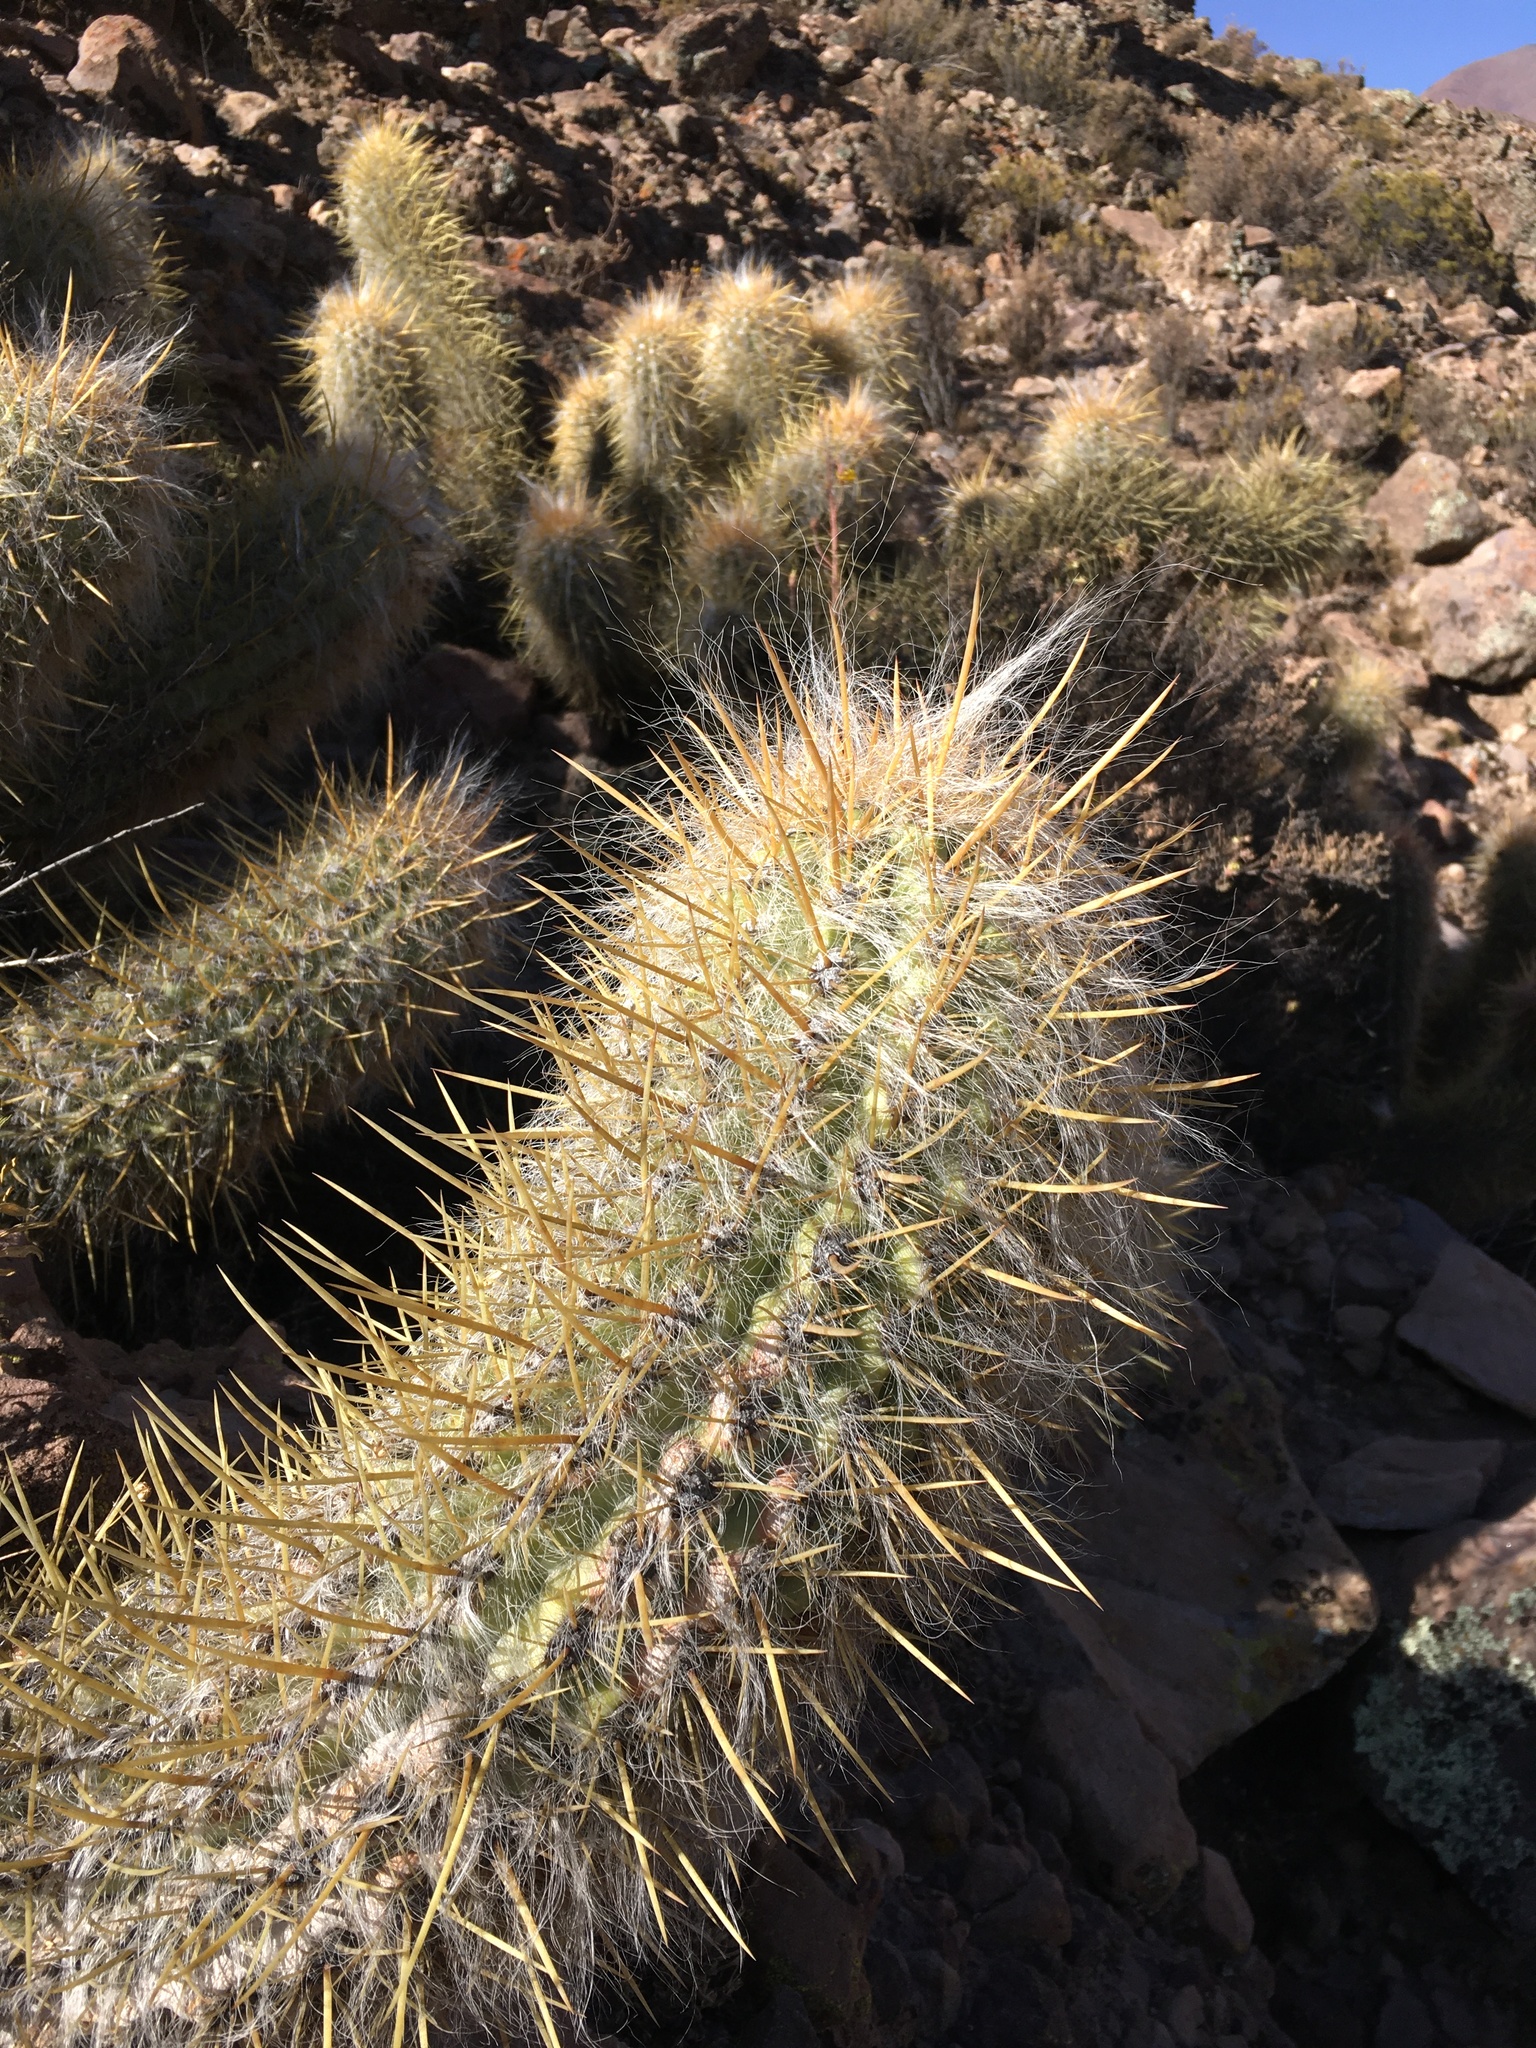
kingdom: Plantae
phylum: Tracheophyta
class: Magnoliopsida
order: Caryophyllales
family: Cactaceae
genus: Oreocereus
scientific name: Oreocereus leucotrichus
